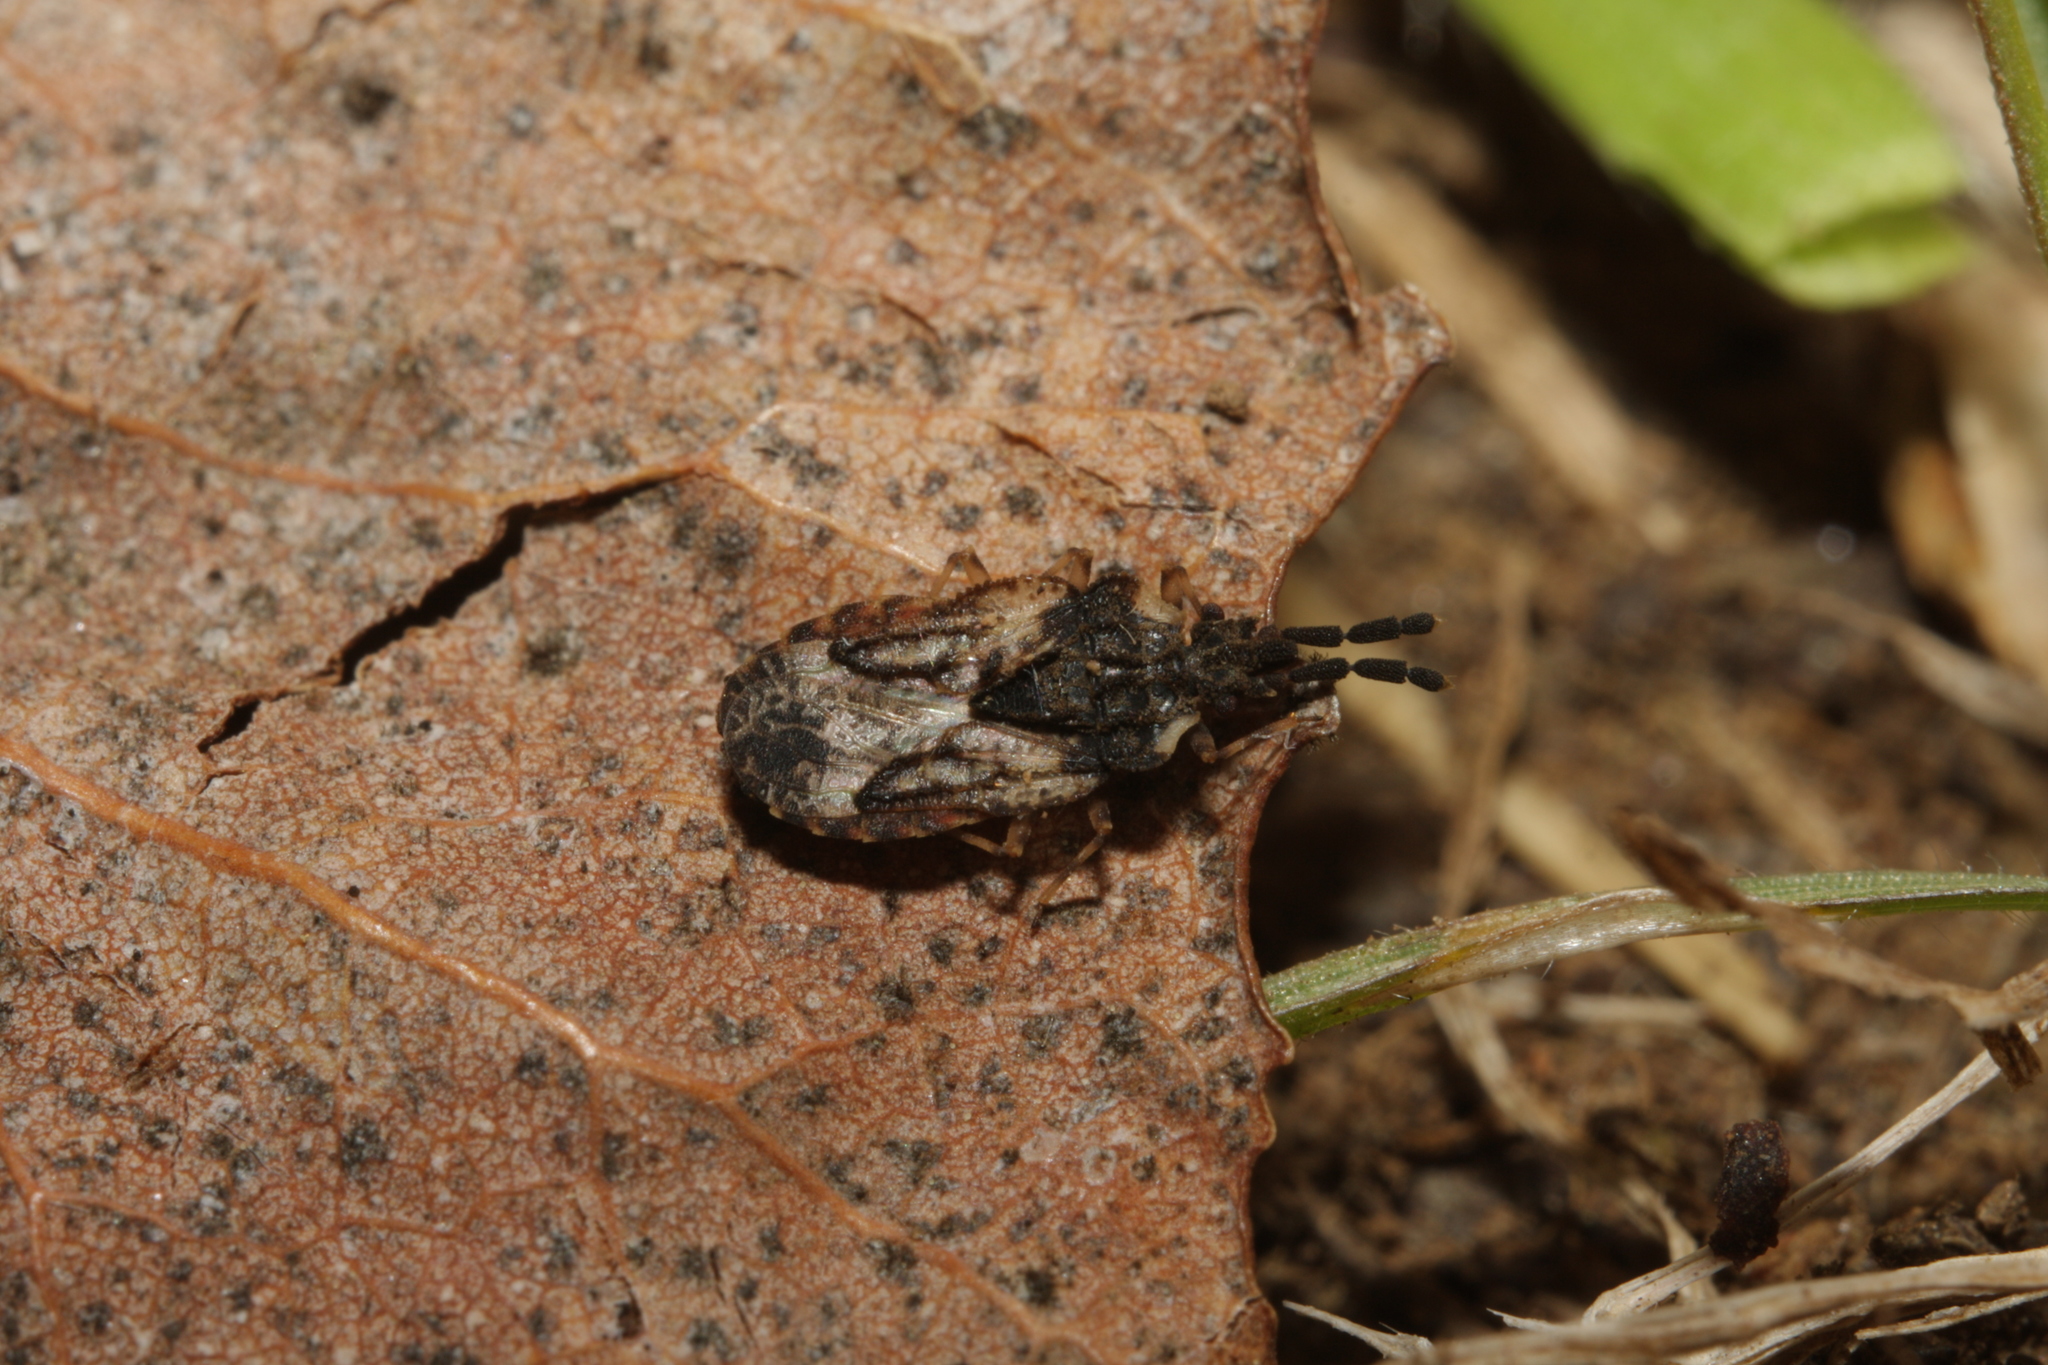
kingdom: Animalia
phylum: Arthropoda
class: Insecta
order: Hemiptera
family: Aradidae
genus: Aradus
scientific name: Aradus depressus
